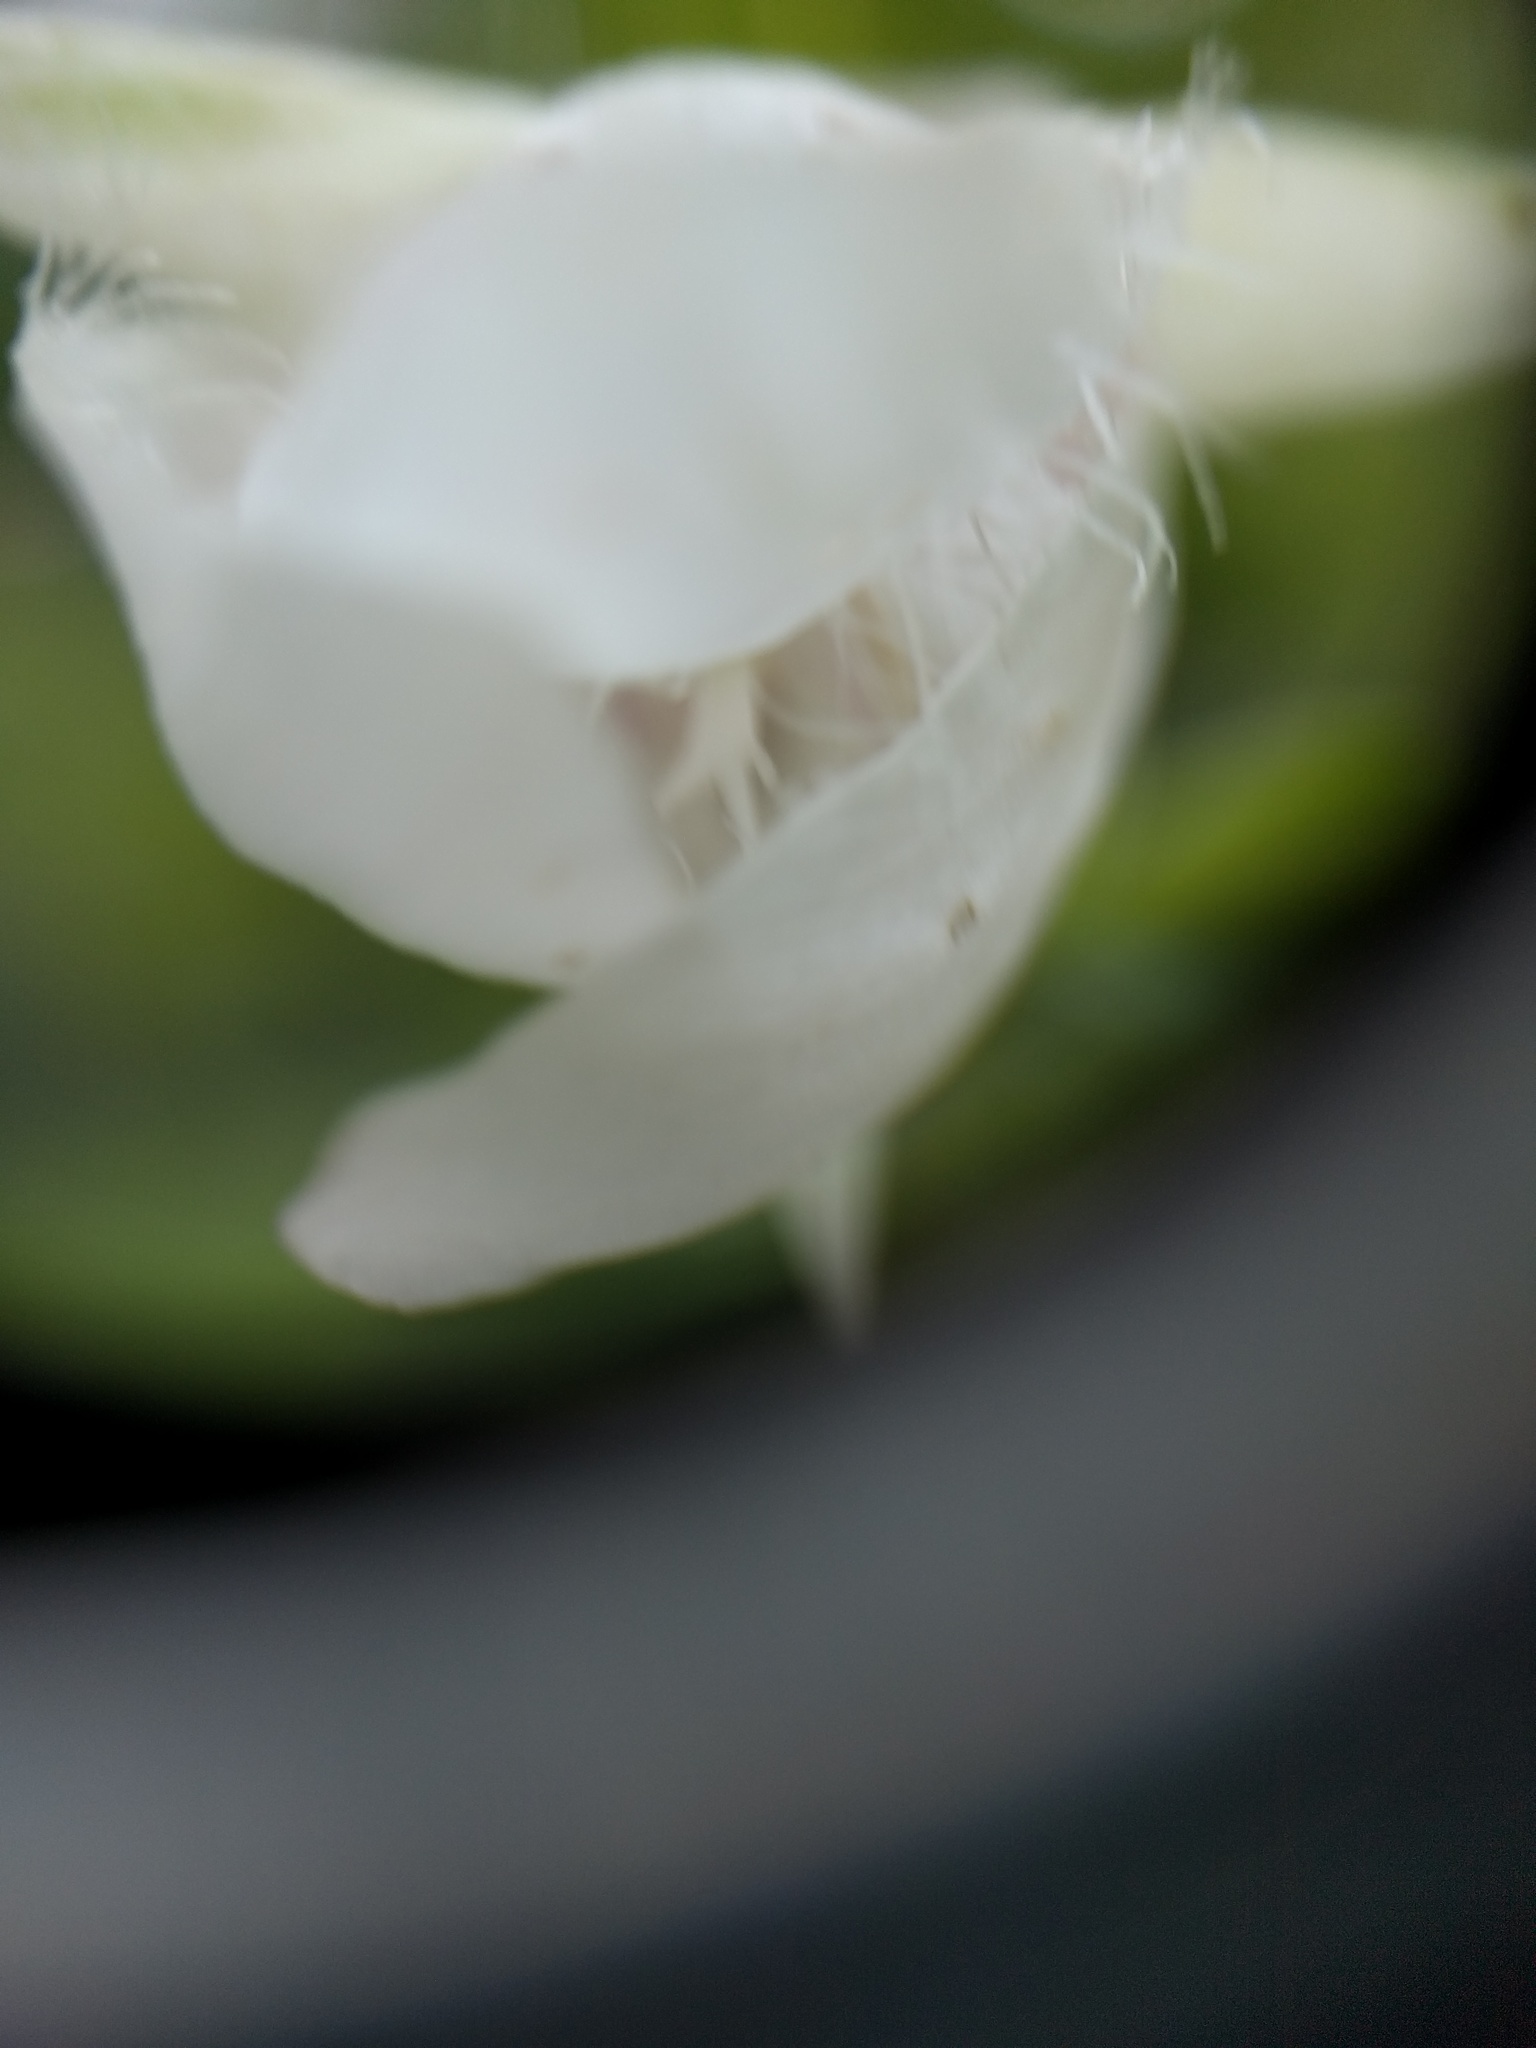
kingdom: Plantae
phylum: Tracheophyta
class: Liliopsida
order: Liliales
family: Liliaceae
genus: Calochortus
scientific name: Calochortus albus
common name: Fairy-lantern
